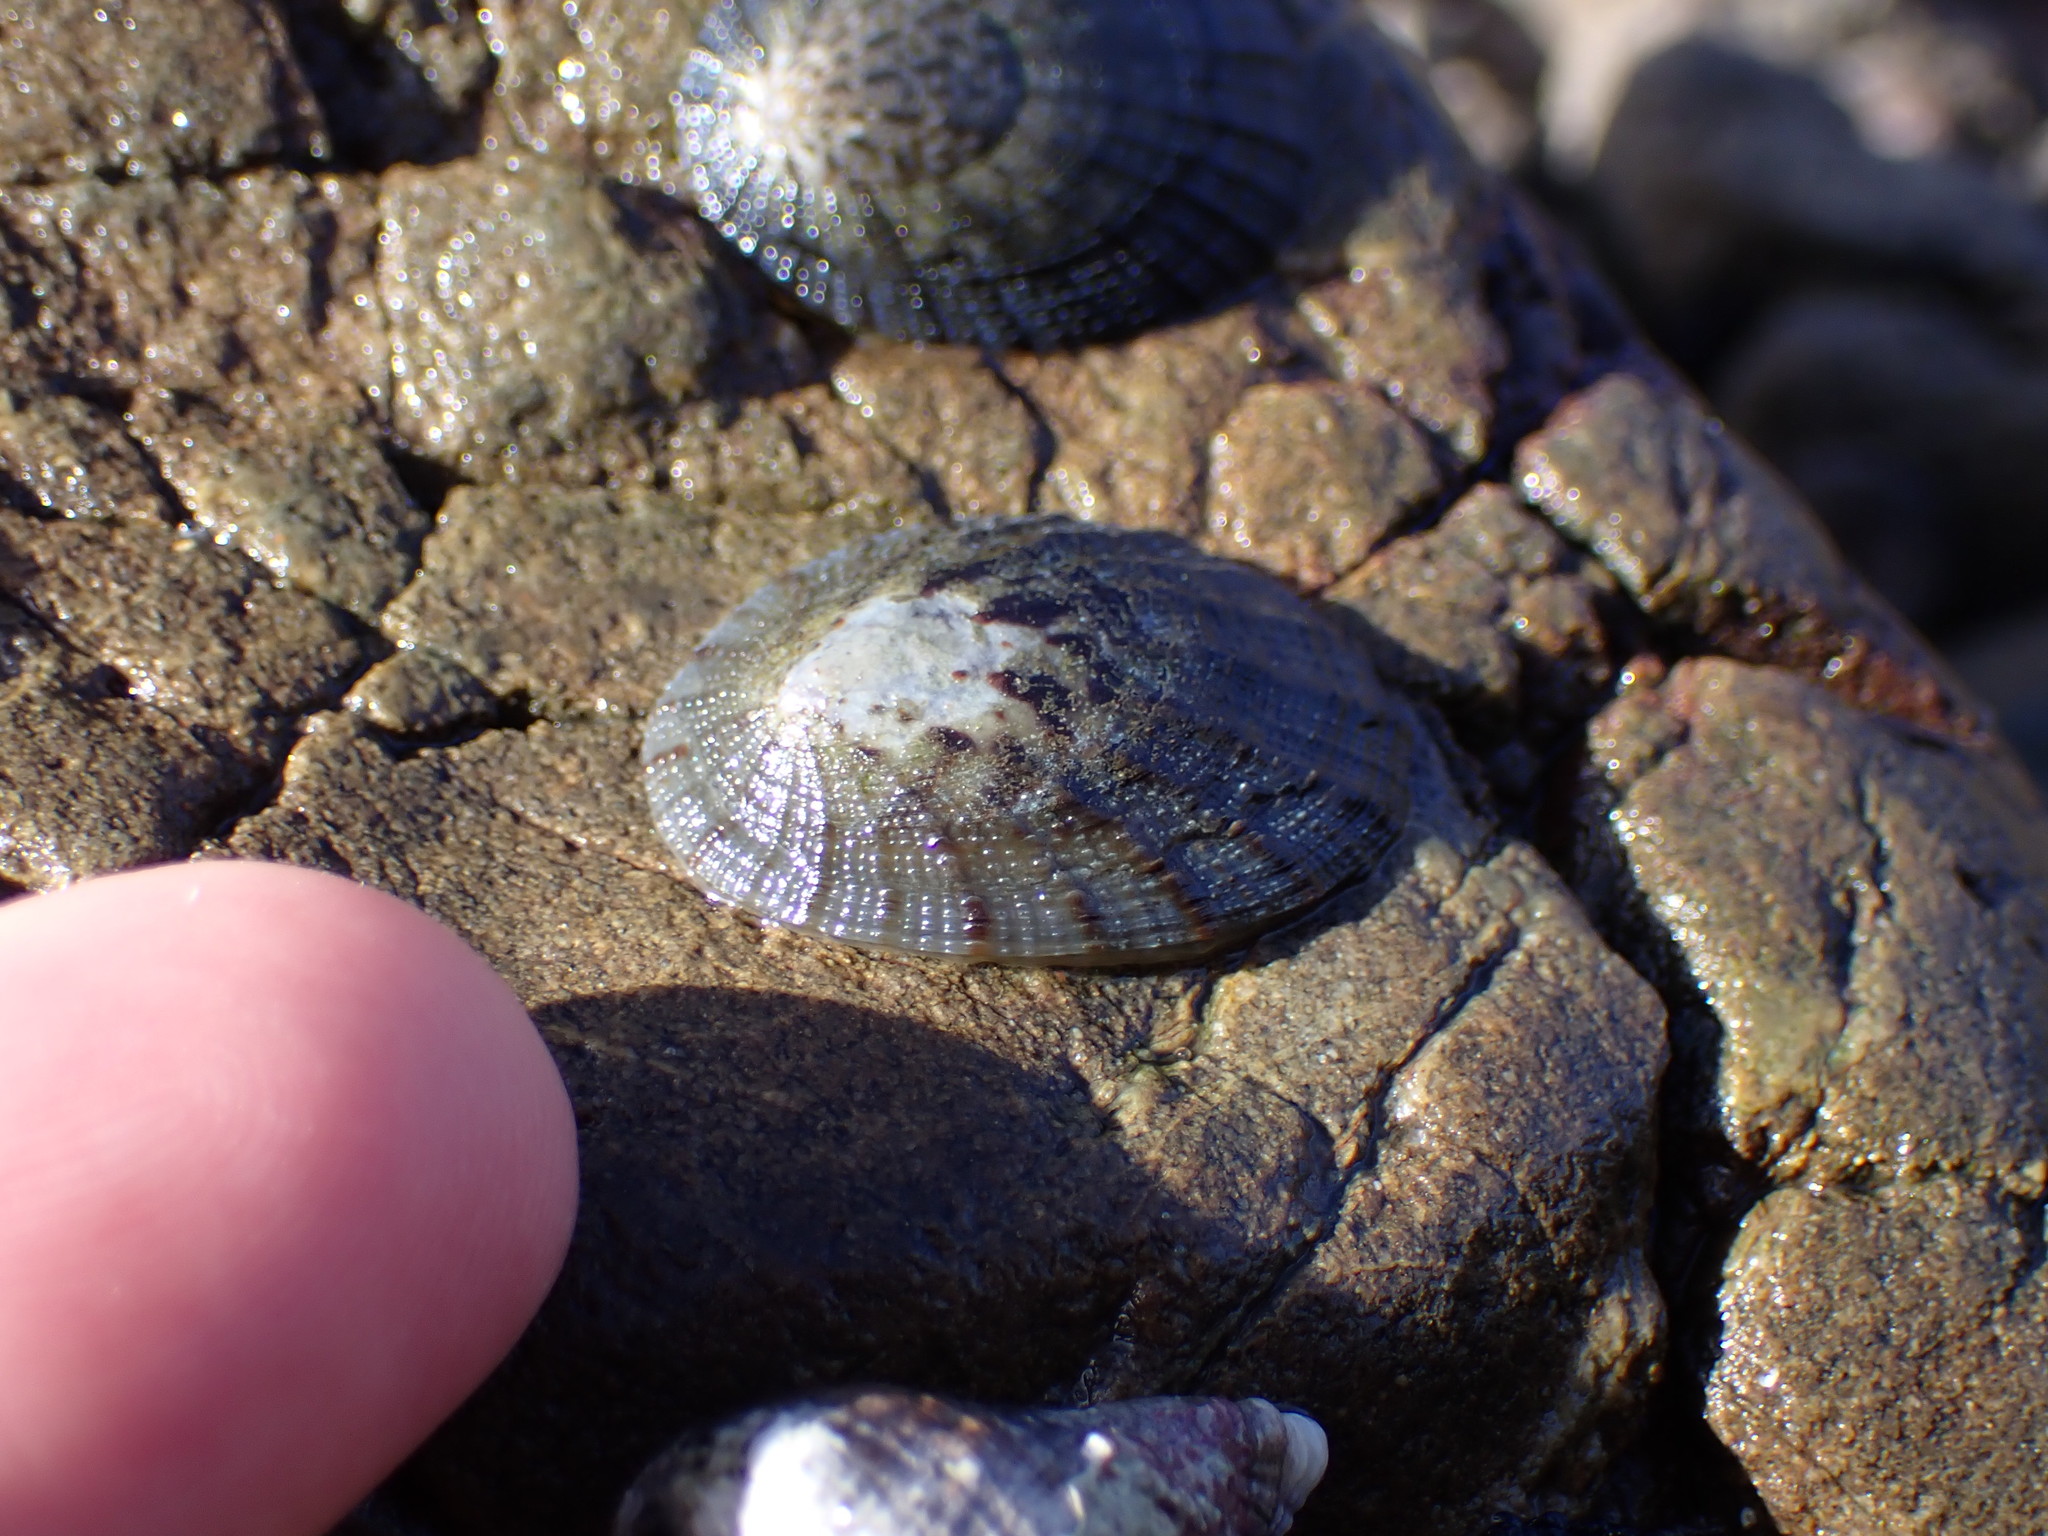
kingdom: Animalia
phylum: Mollusca
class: Gastropoda
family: Nacellidae
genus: Cellana
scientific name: Cellana radians
